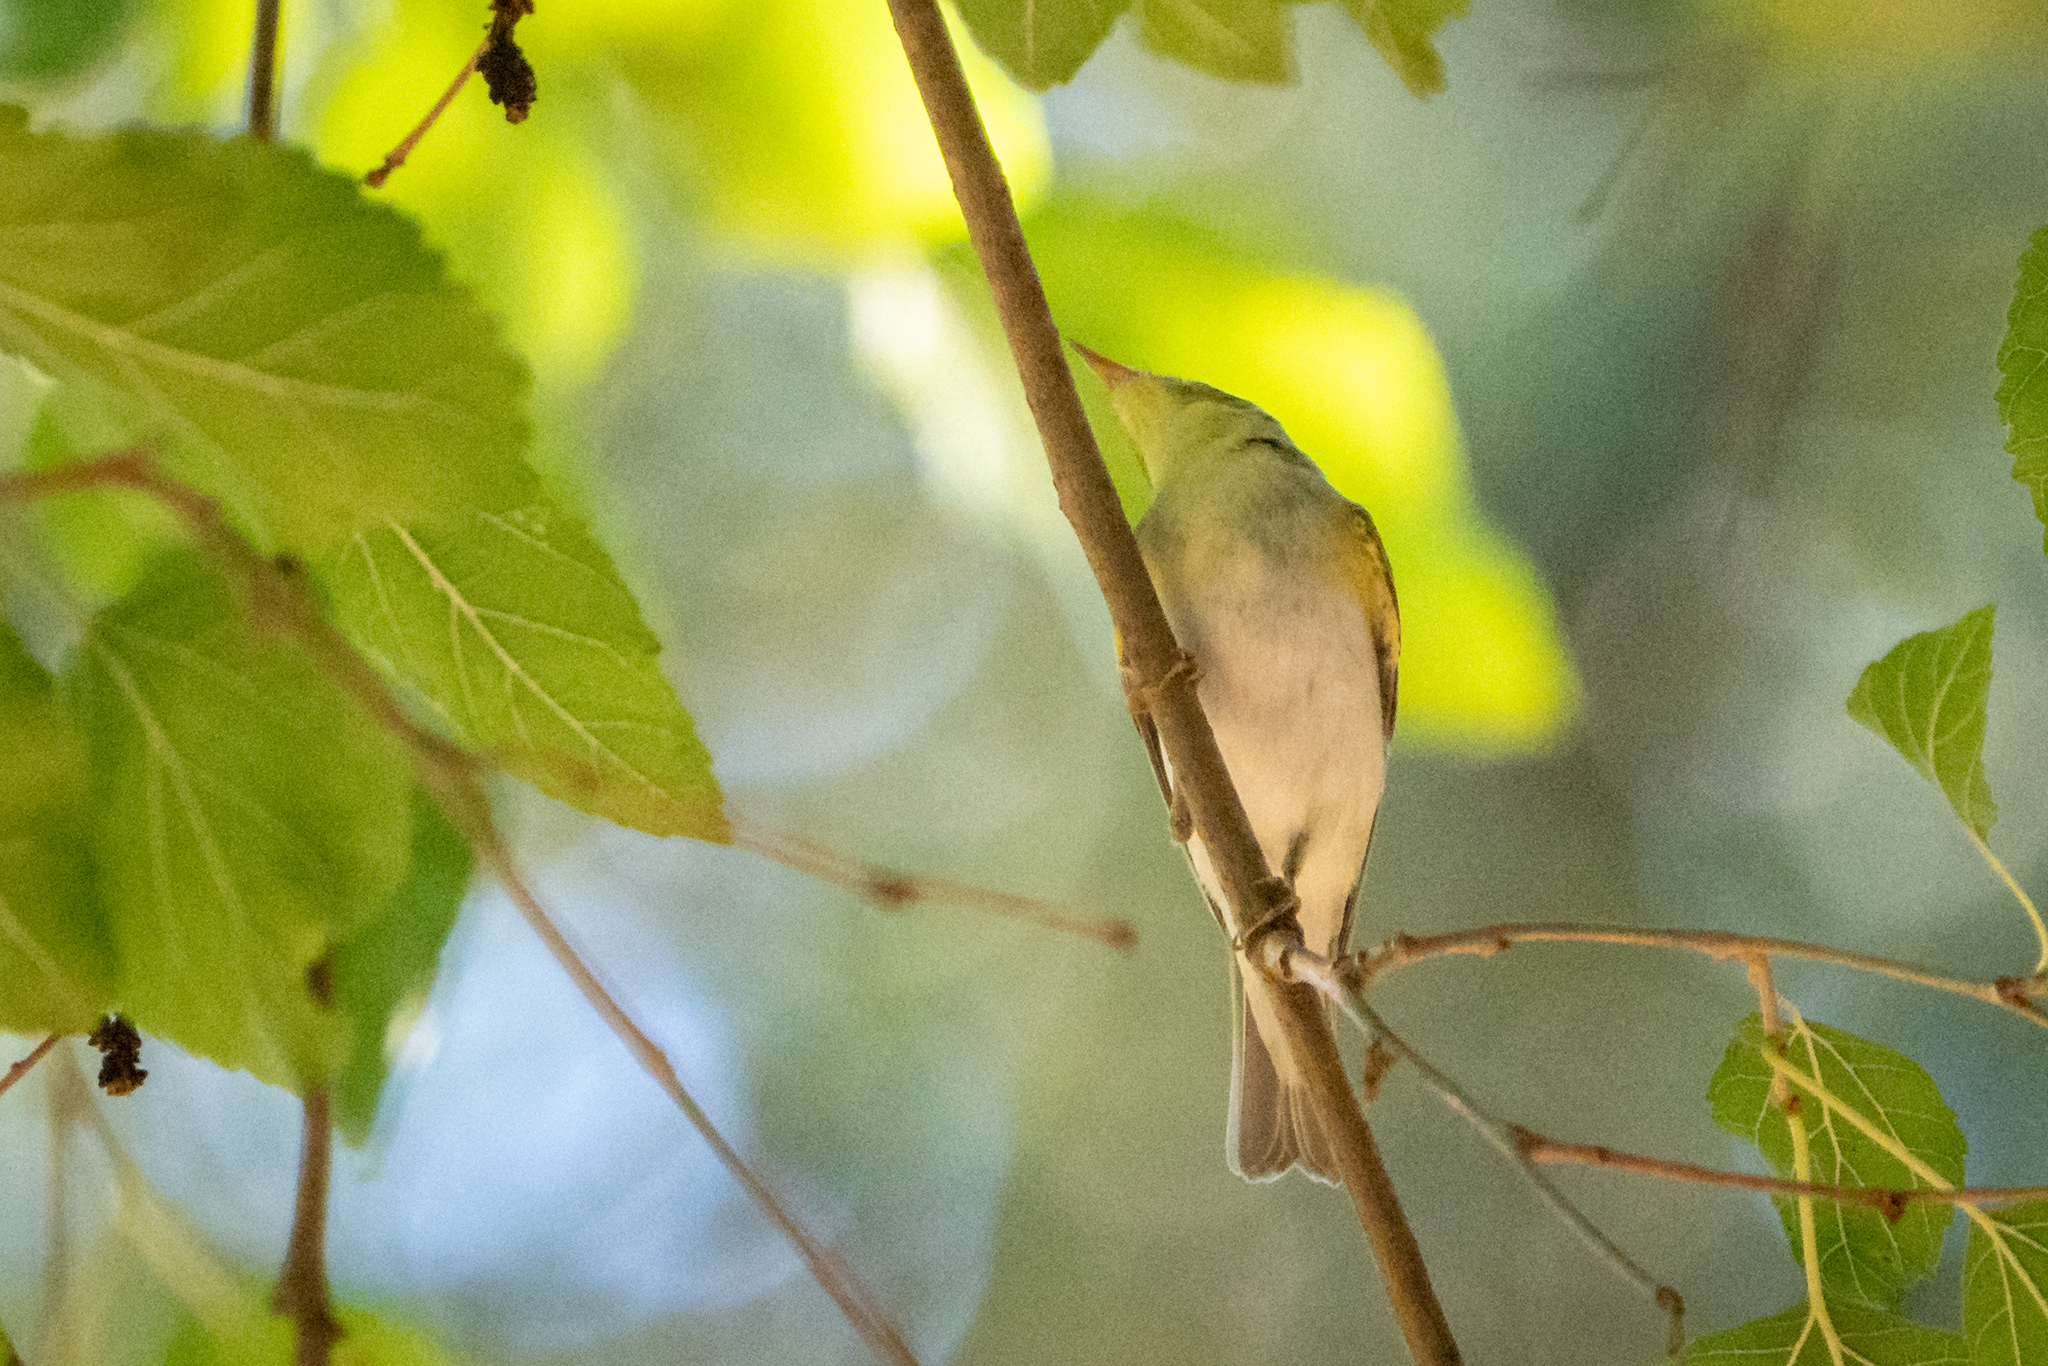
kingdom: Animalia
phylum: Chordata
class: Aves
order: Passeriformes
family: Phylloscopidae
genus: Phylloscopus
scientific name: Phylloscopus sibillatrix
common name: Wood warbler
